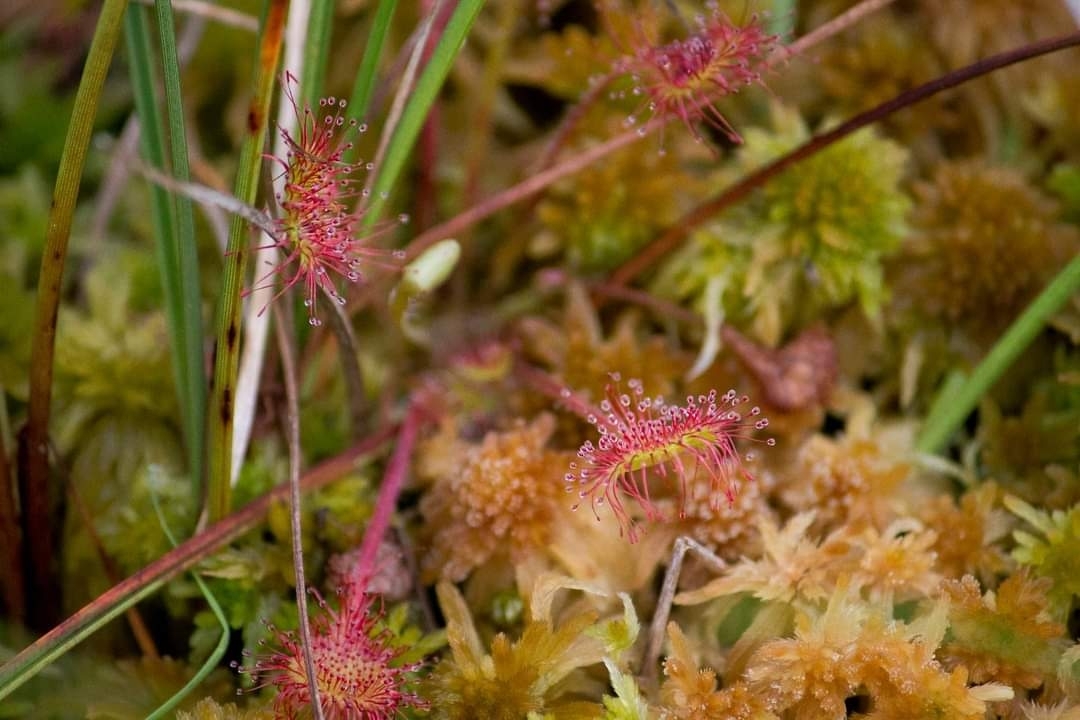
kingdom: Plantae
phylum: Tracheophyta
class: Magnoliopsida
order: Caryophyllales
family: Droseraceae
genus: Drosera
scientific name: Drosera rotundifolia
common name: Round-leaved sundew
